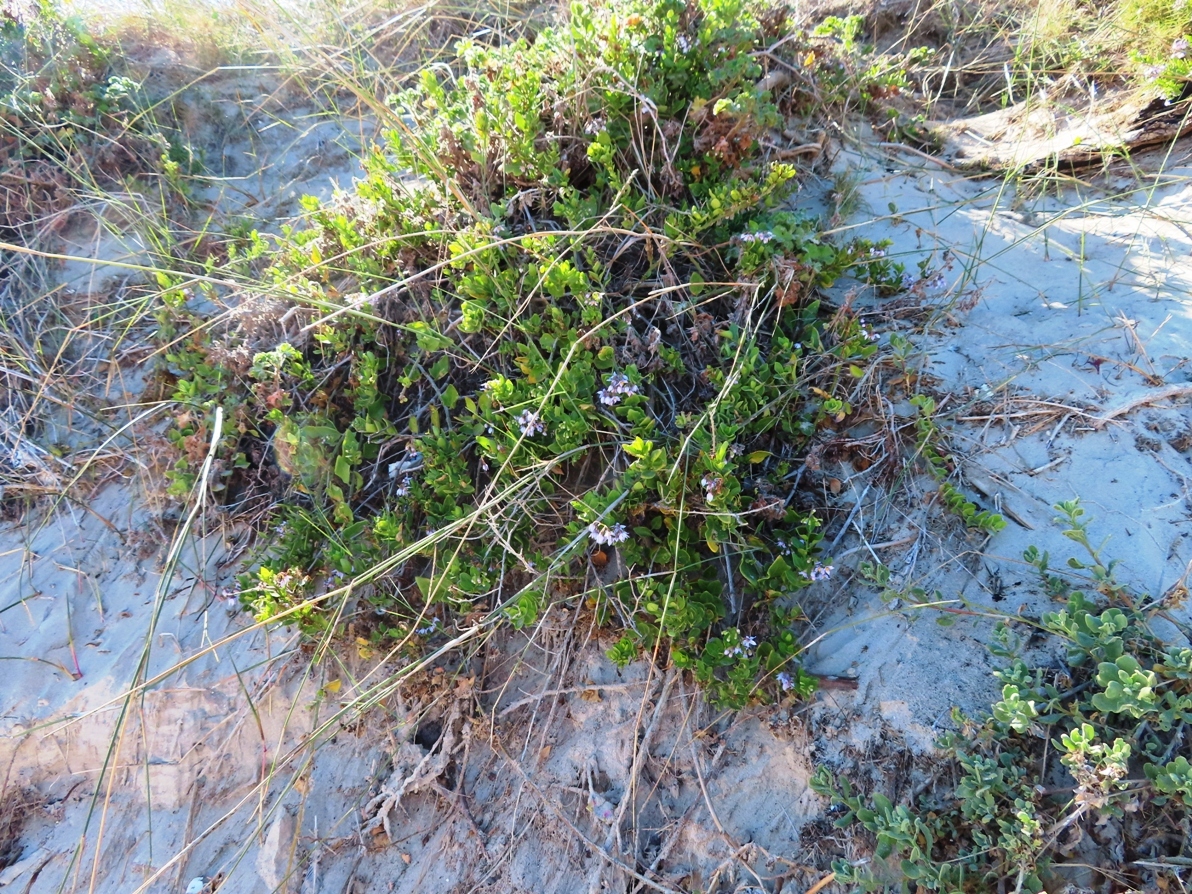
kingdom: Plantae
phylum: Tracheophyta
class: Magnoliopsida
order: Solanales
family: Solanaceae
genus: Solanum
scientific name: Solanum africanum
